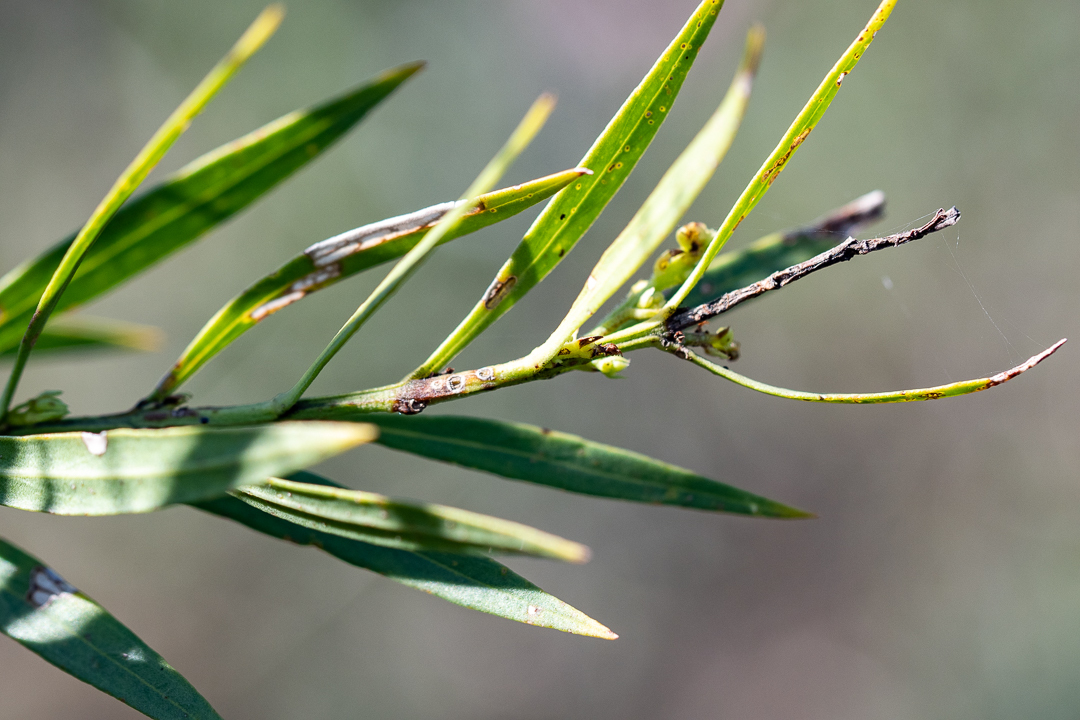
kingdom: Plantae
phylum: Tracheophyta
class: Magnoliopsida
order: Lamiales
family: Scrophulariaceae
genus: Freylinia
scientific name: Freylinia lanceolata
